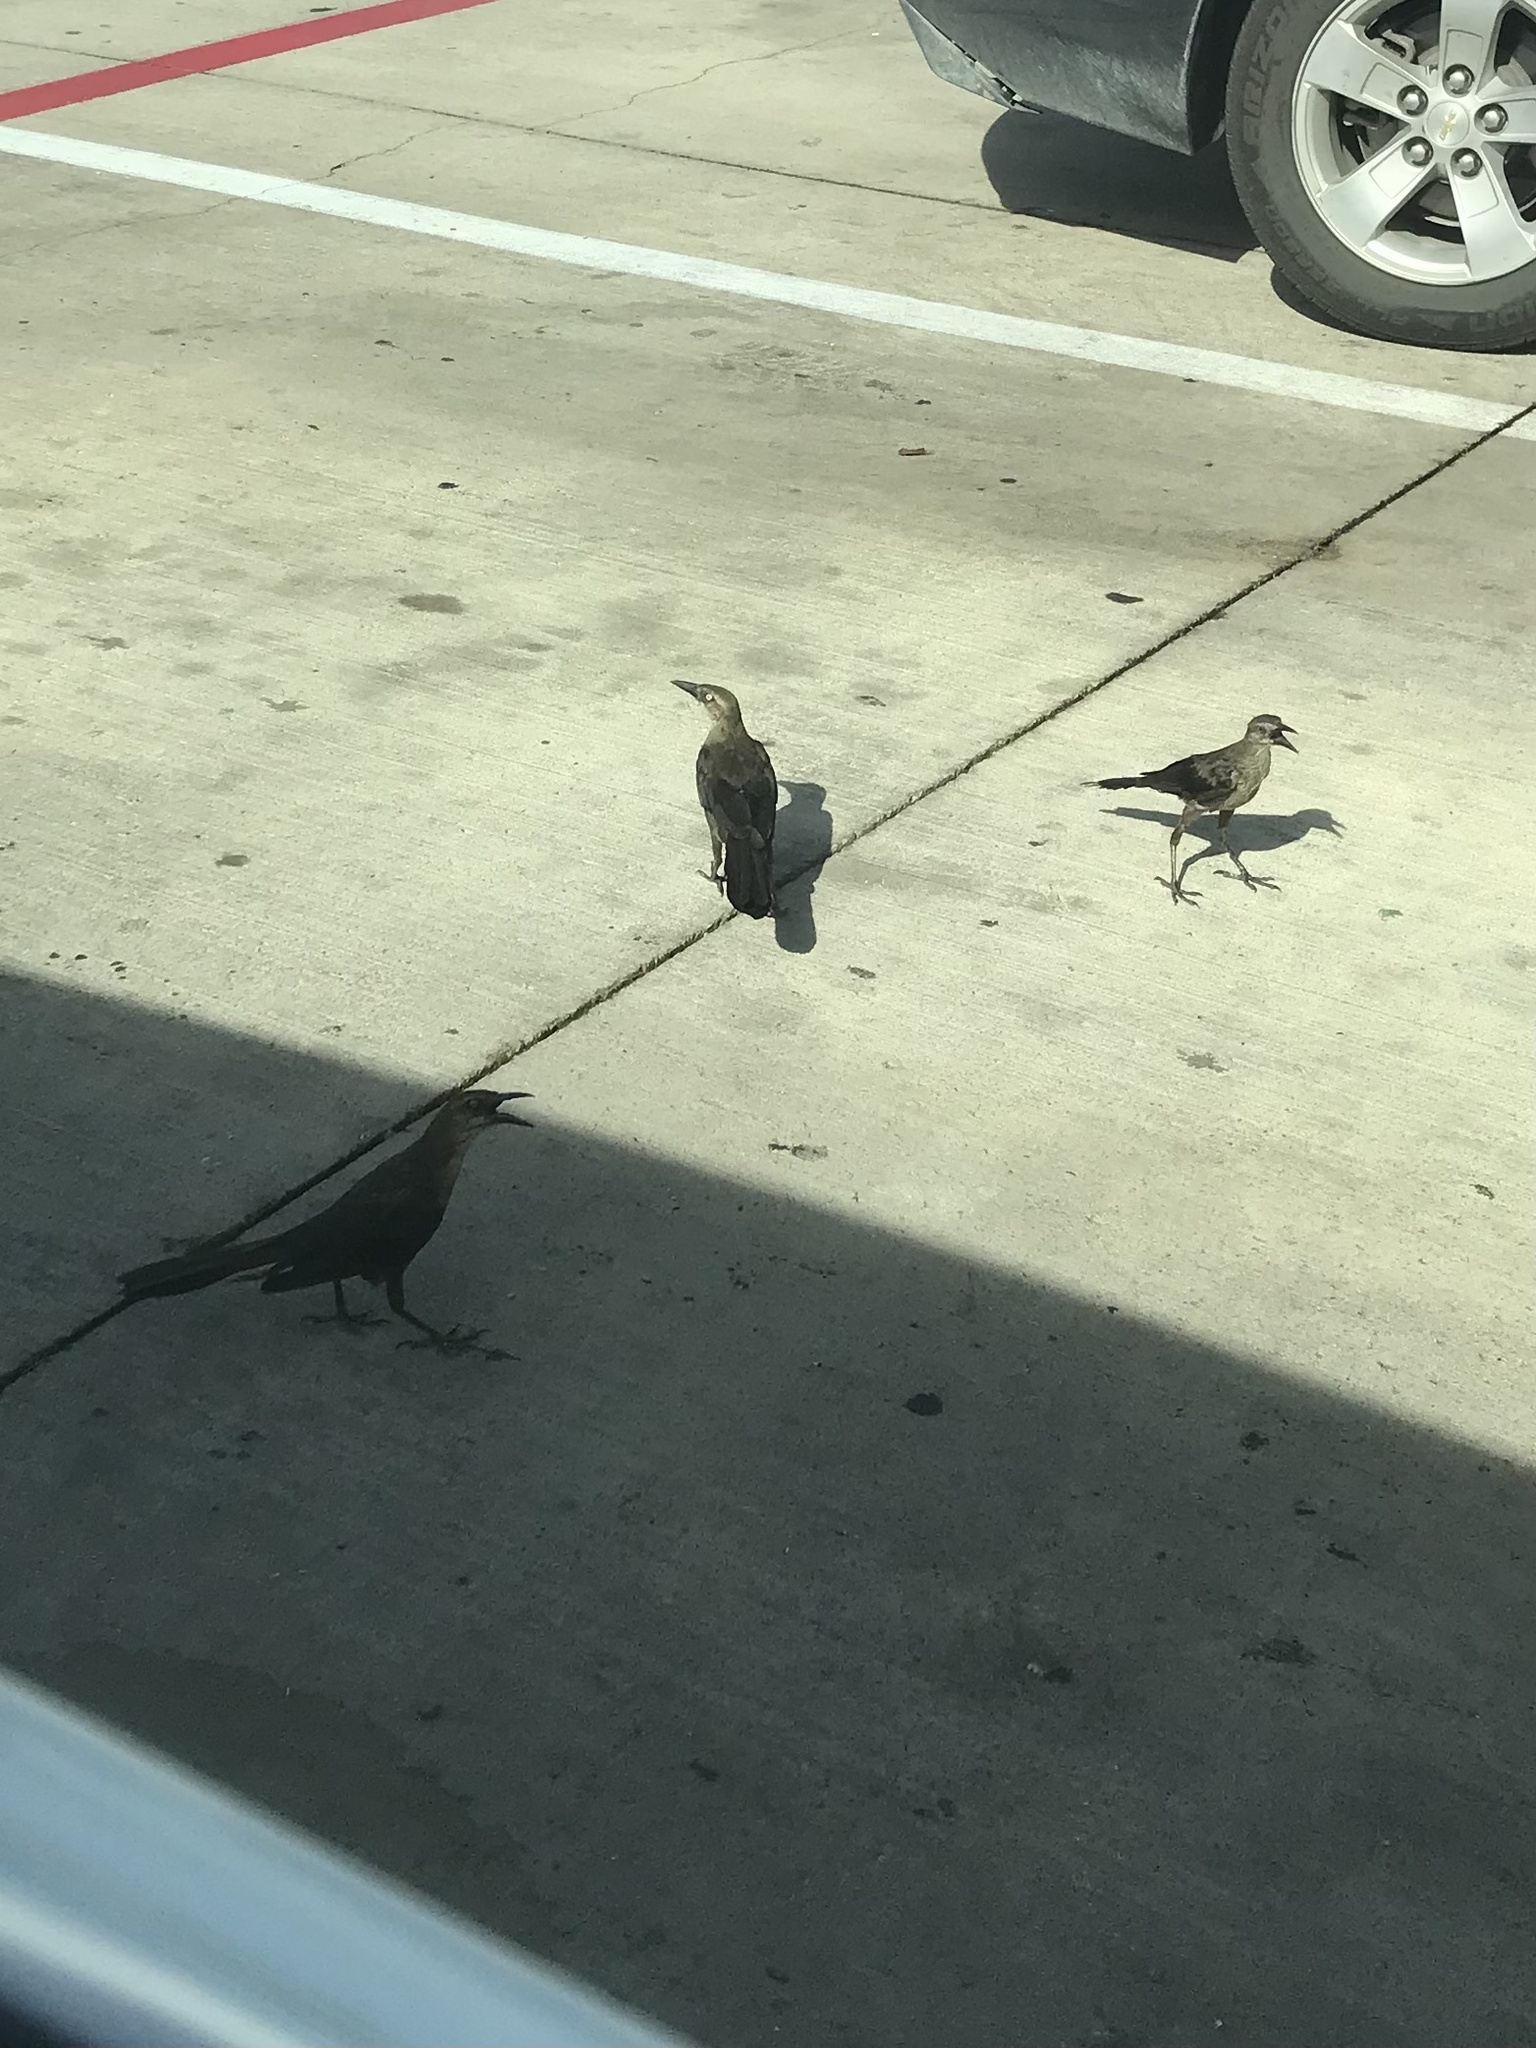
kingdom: Animalia
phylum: Chordata
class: Aves
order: Passeriformes
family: Icteridae
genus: Quiscalus
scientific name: Quiscalus mexicanus
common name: Great-tailed grackle
